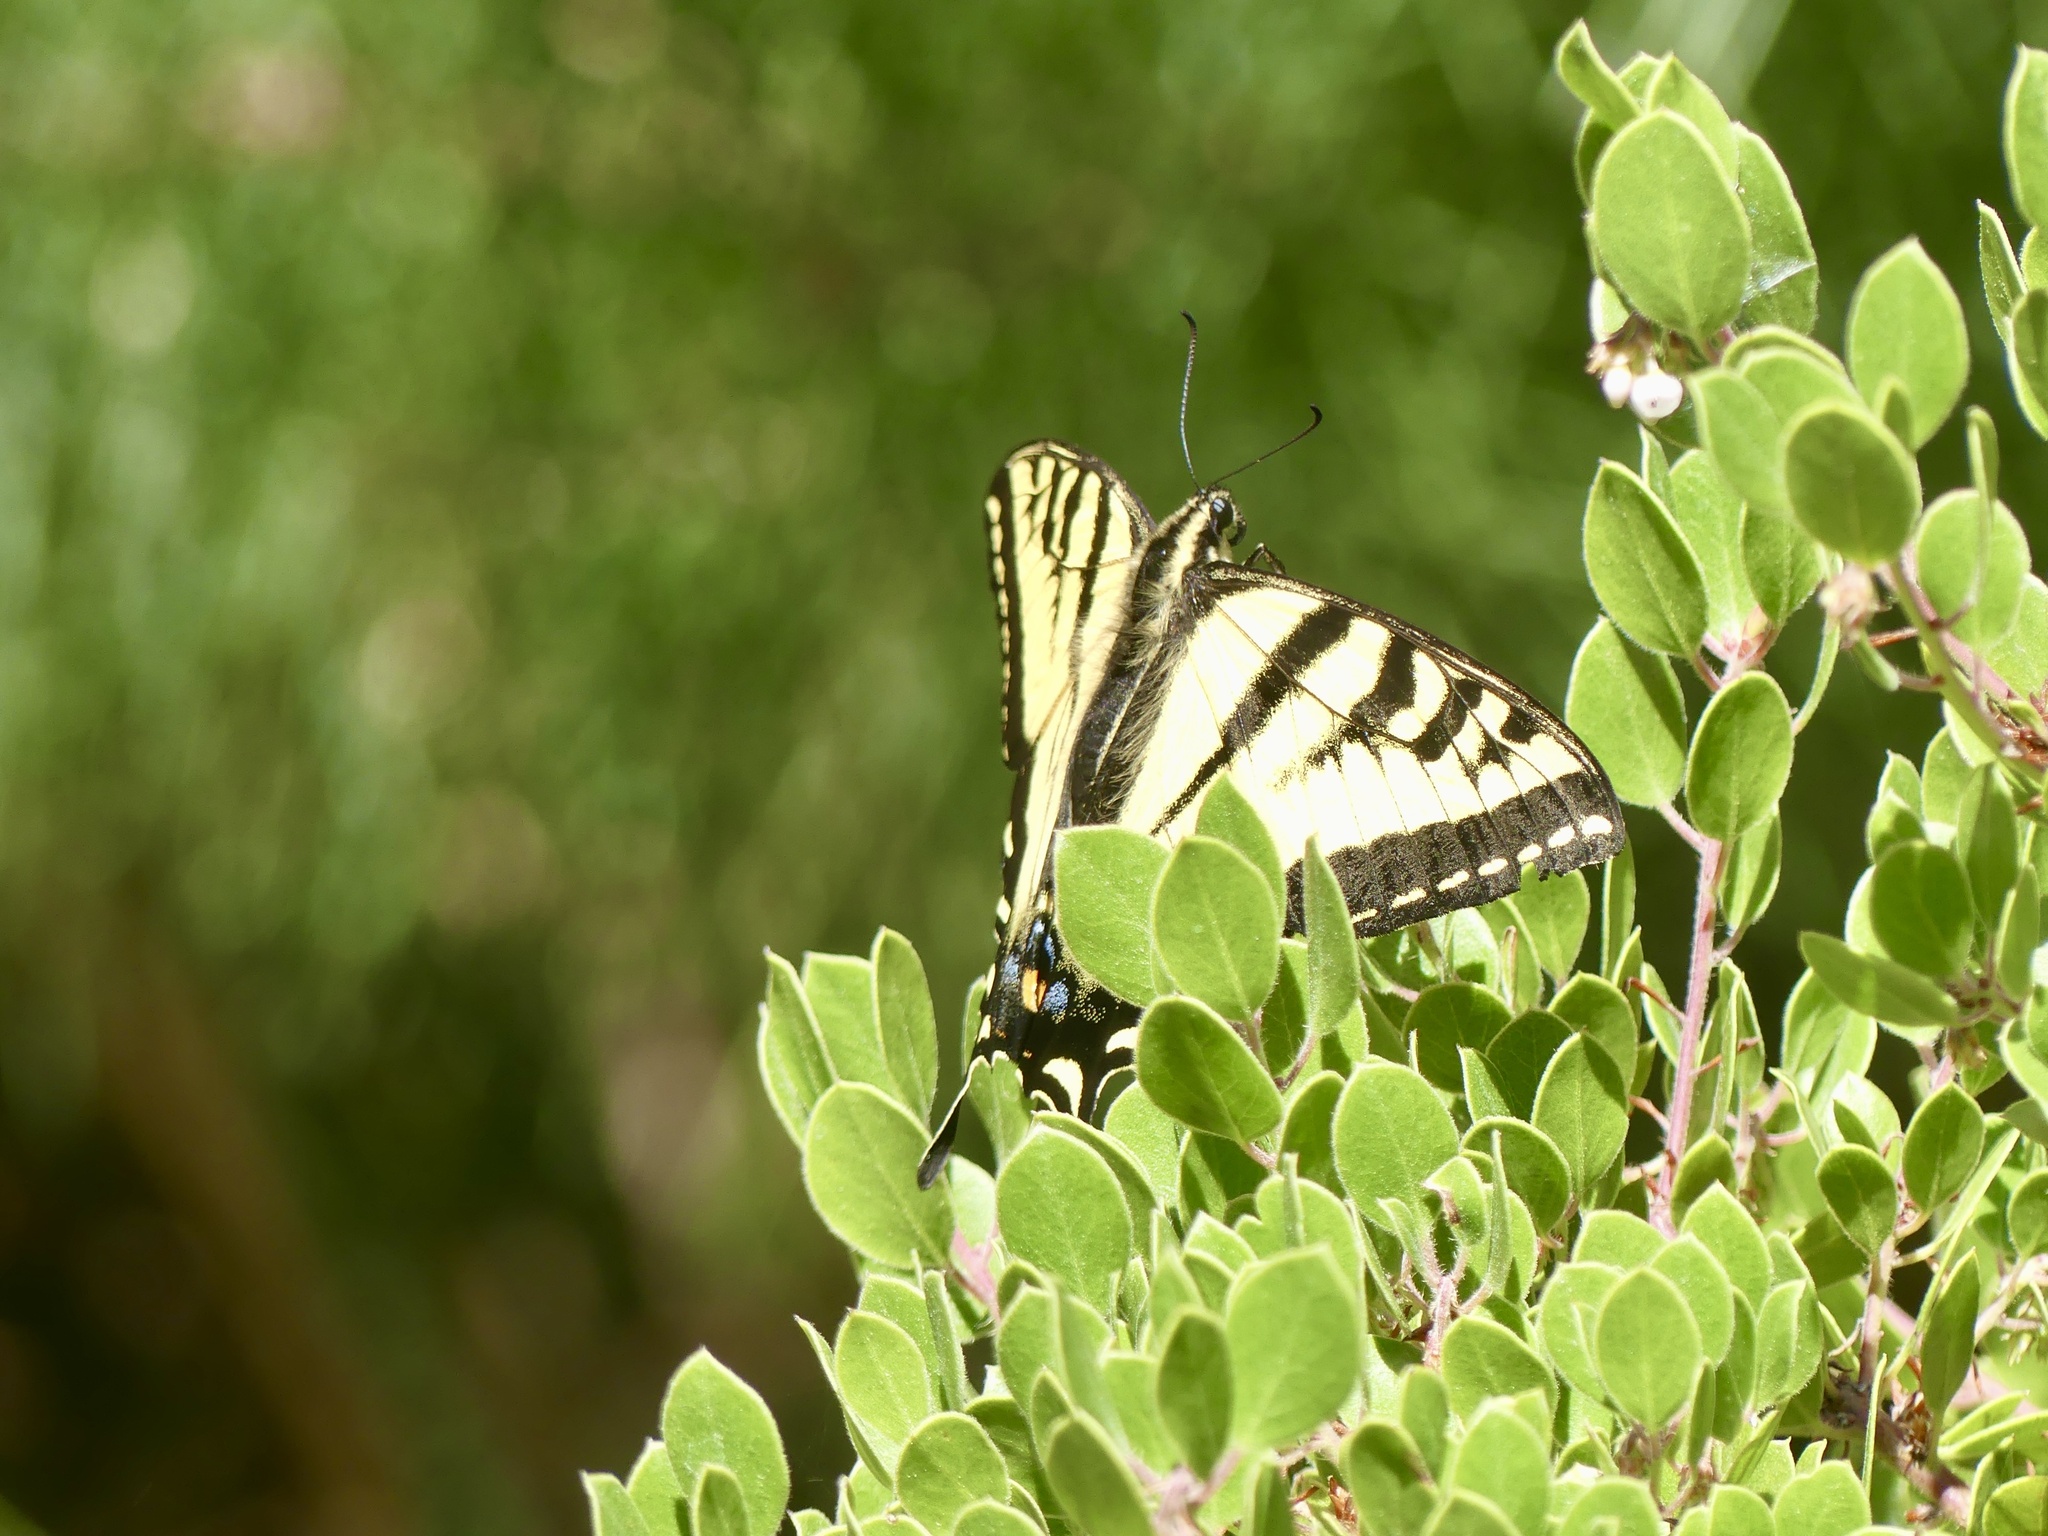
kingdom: Animalia
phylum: Arthropoda
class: Insecta
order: Lepidoptera
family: Papilionidae
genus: Papilio
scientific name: Papilio rutulus
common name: Western tiger swallowtail
